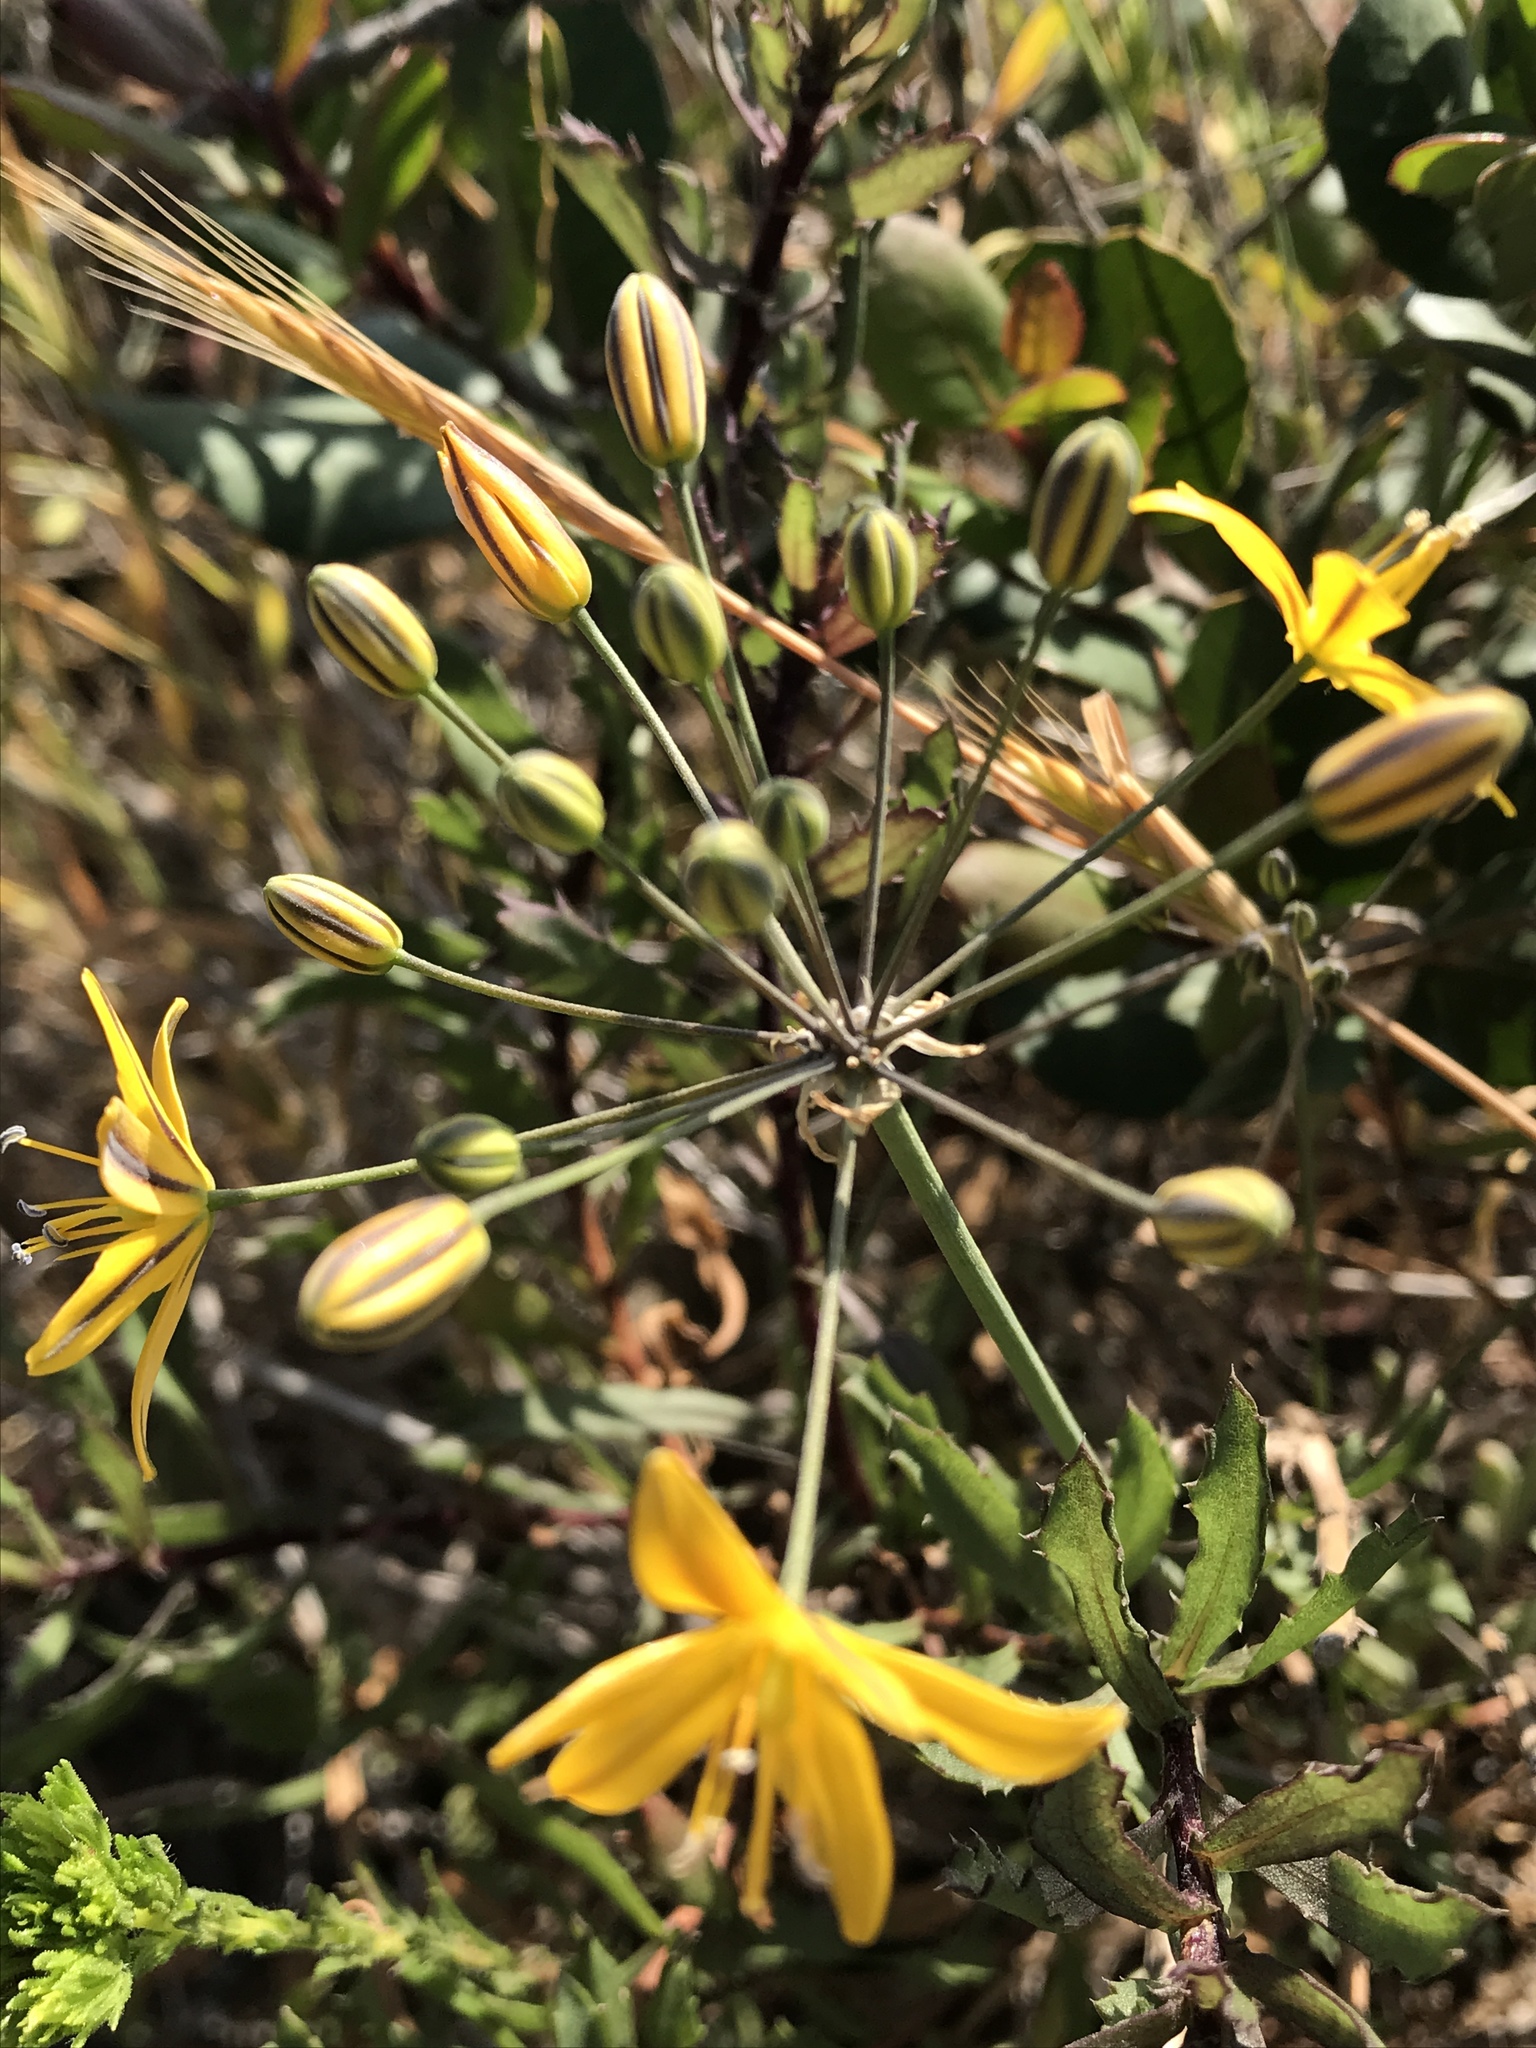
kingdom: Plantae
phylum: Tracheophyta
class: Liliopsida
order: Asparagales
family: Asparagaceae
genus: Bloomeria
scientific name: Bloomeria crocea
